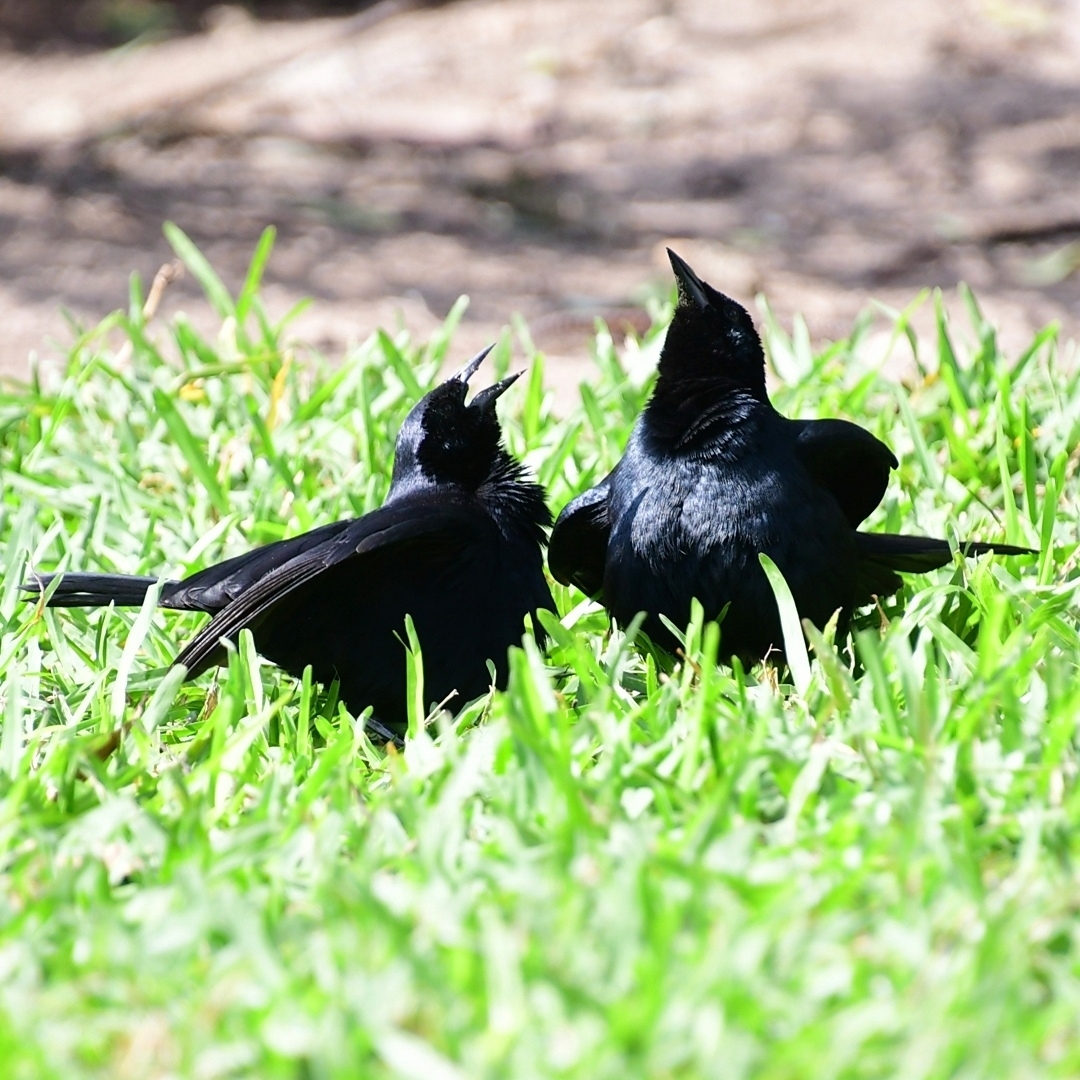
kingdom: Animalia
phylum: Chordata
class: Aves
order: Passeriformes
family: Icteridae
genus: Dives
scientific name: Dives warczewiczi
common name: Scrub blackbird
